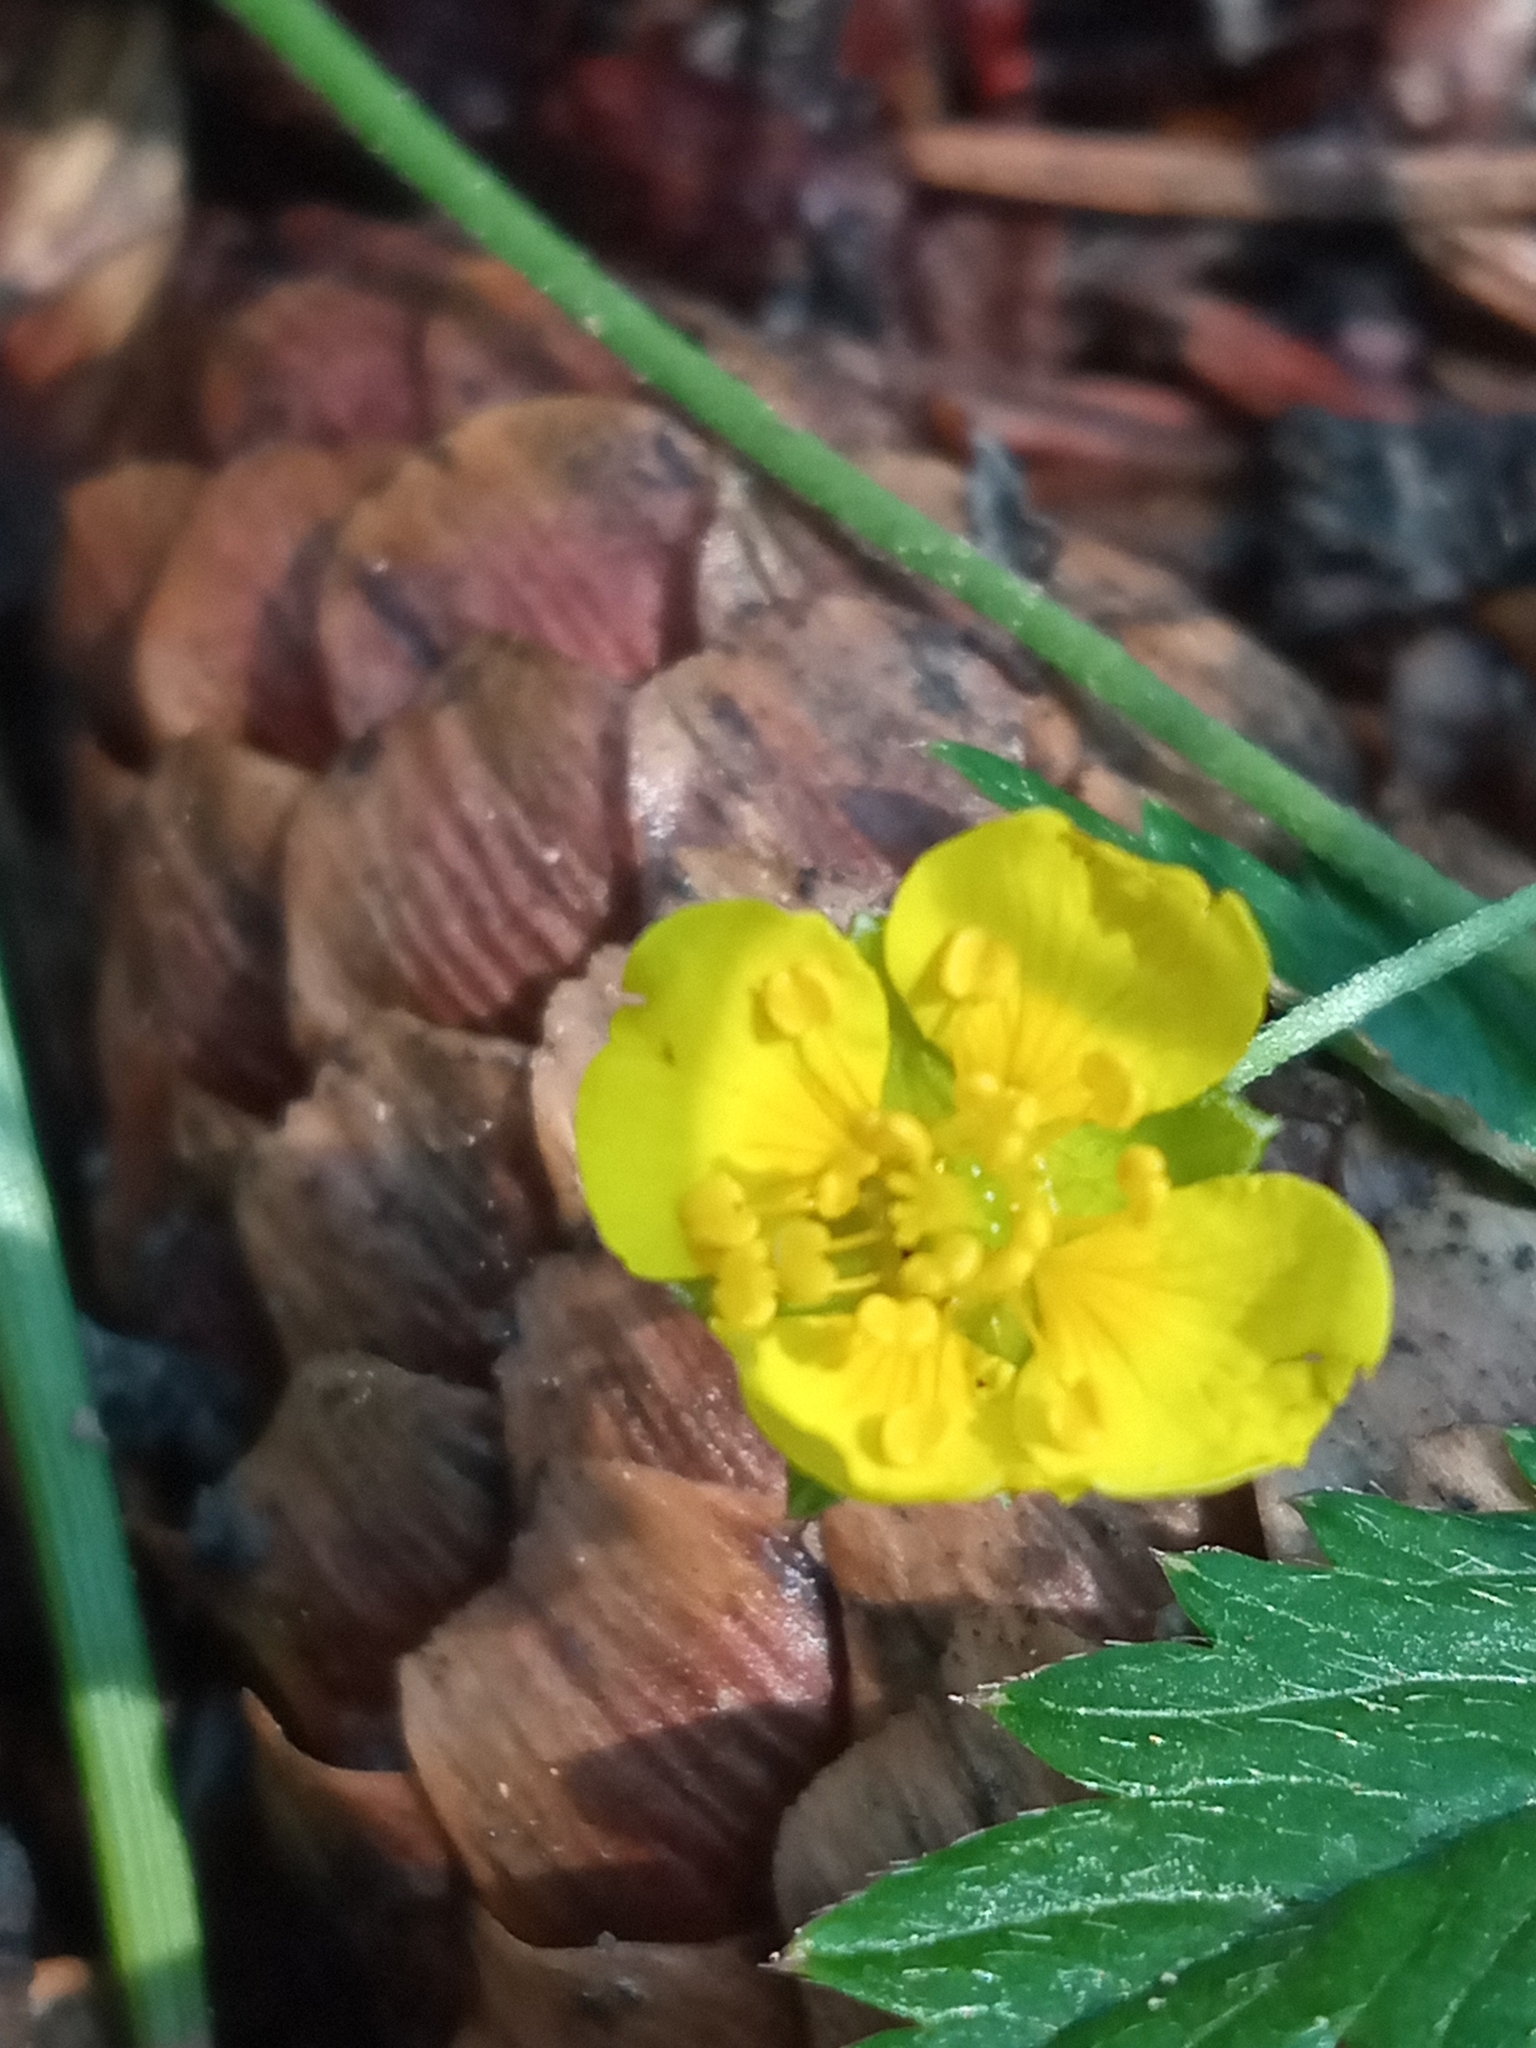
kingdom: Plantae
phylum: Tracheophyta
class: Magnoliopsida
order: Rosales
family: Rosaceae
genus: Potentilla
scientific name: Potentilla erecta
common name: Tormentil
